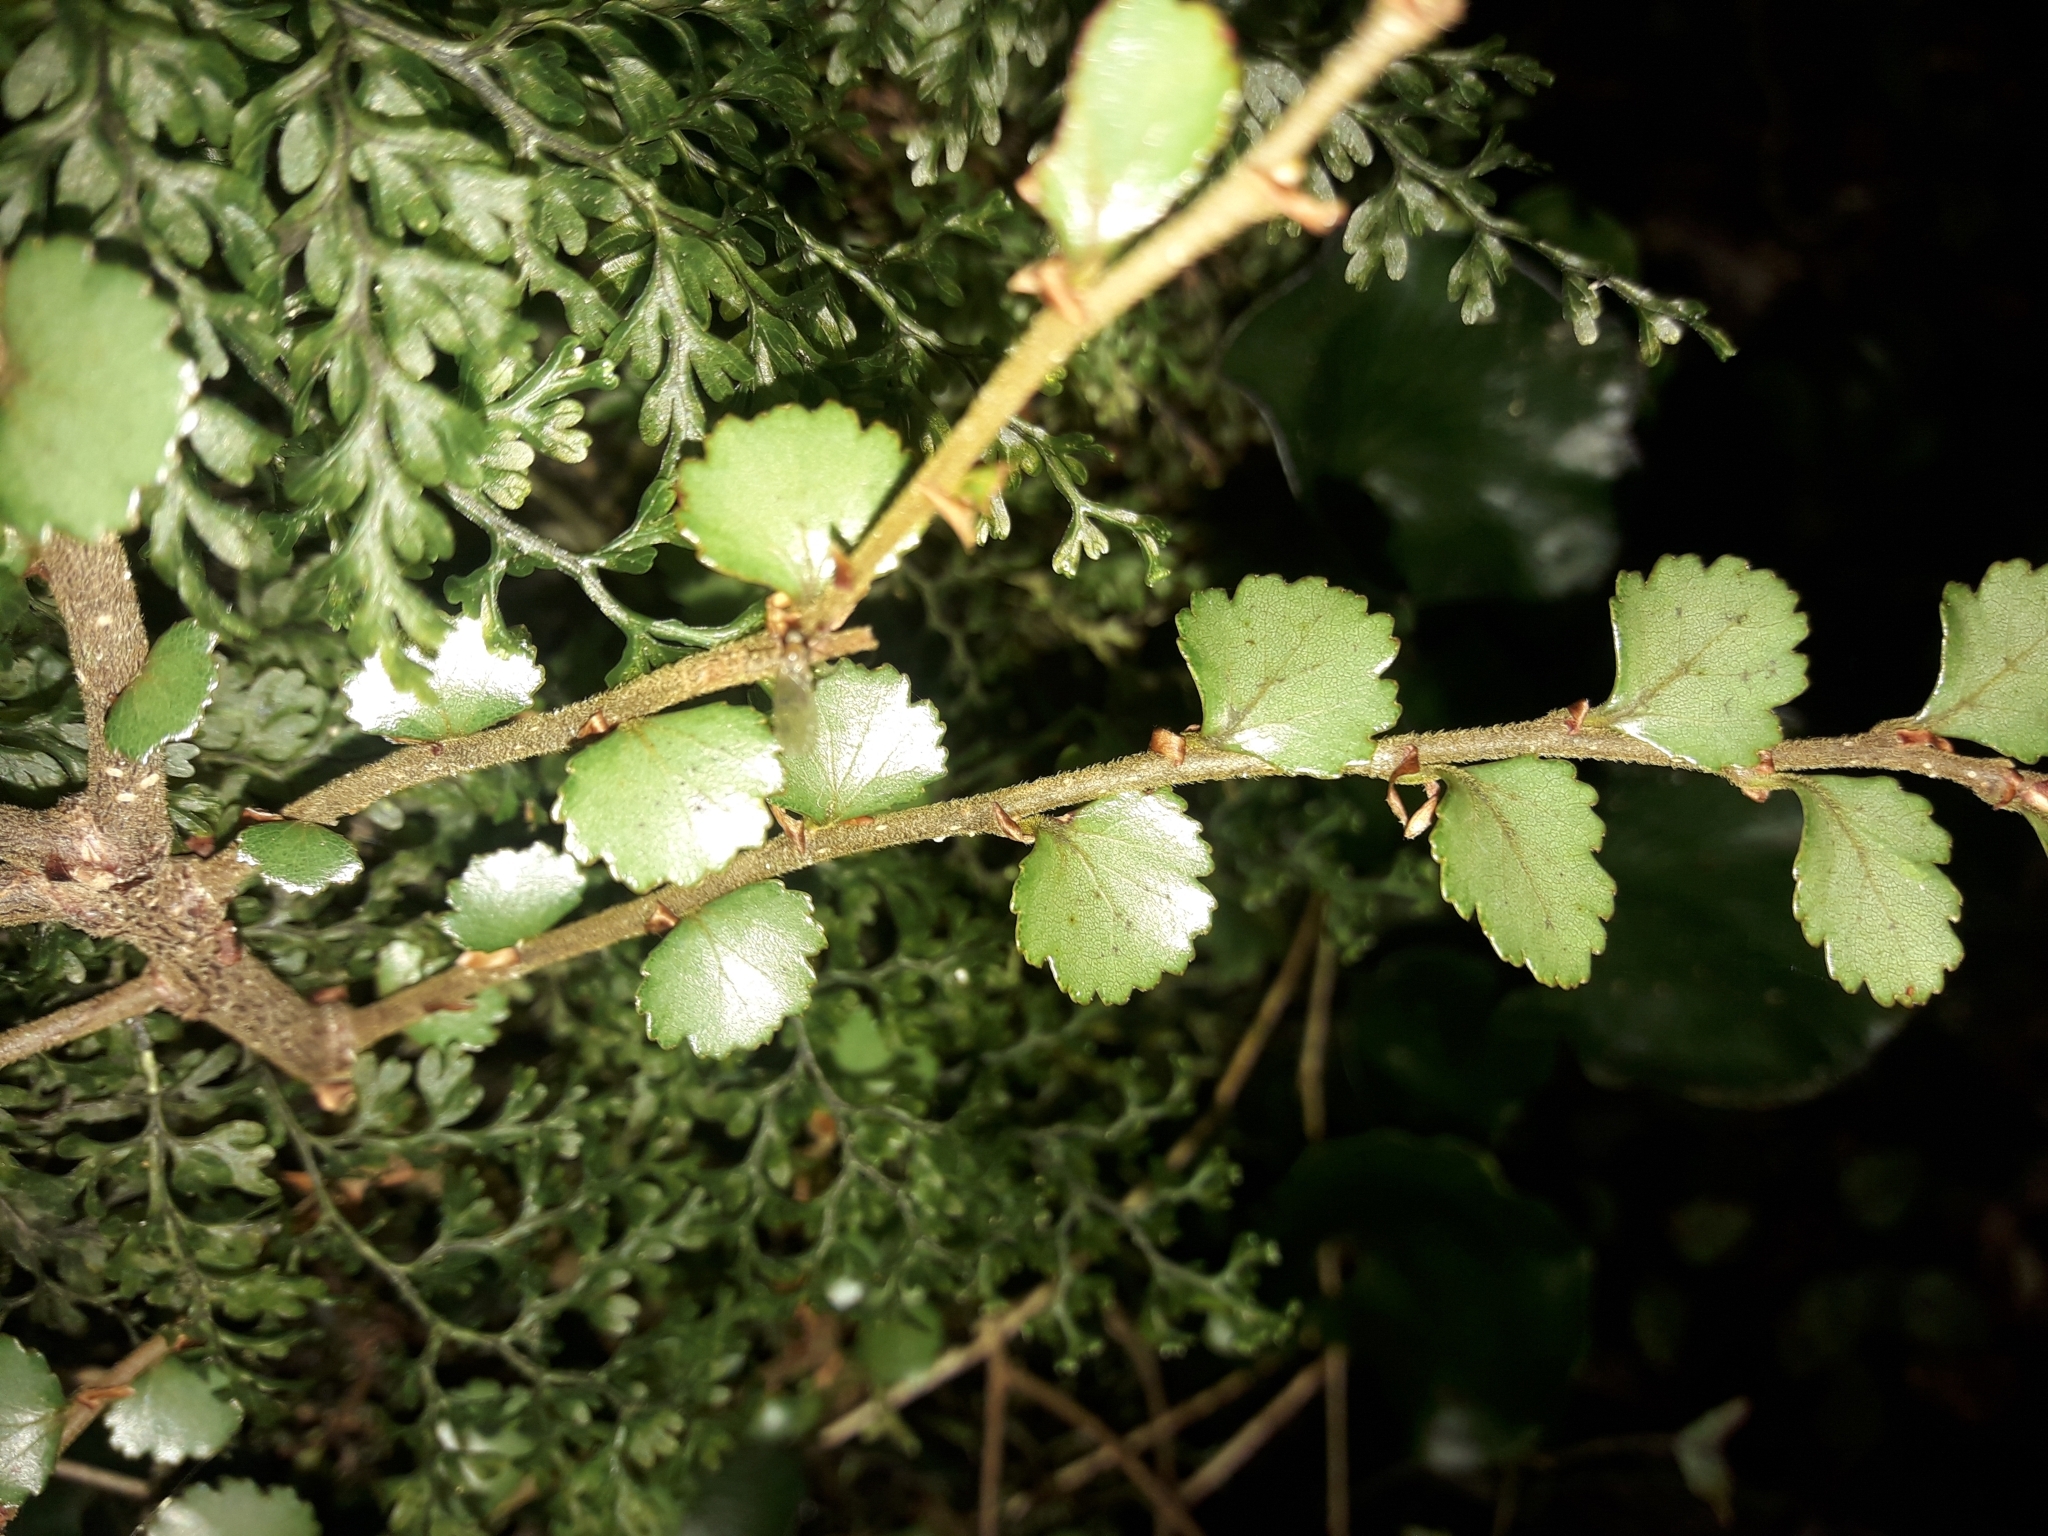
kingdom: Plantae
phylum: Tracheophyta
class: Magnoliopsida
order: Fagales
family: Nothofagaceae
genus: Nothofagus
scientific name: Nothofagus menziesii
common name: Silver beech
